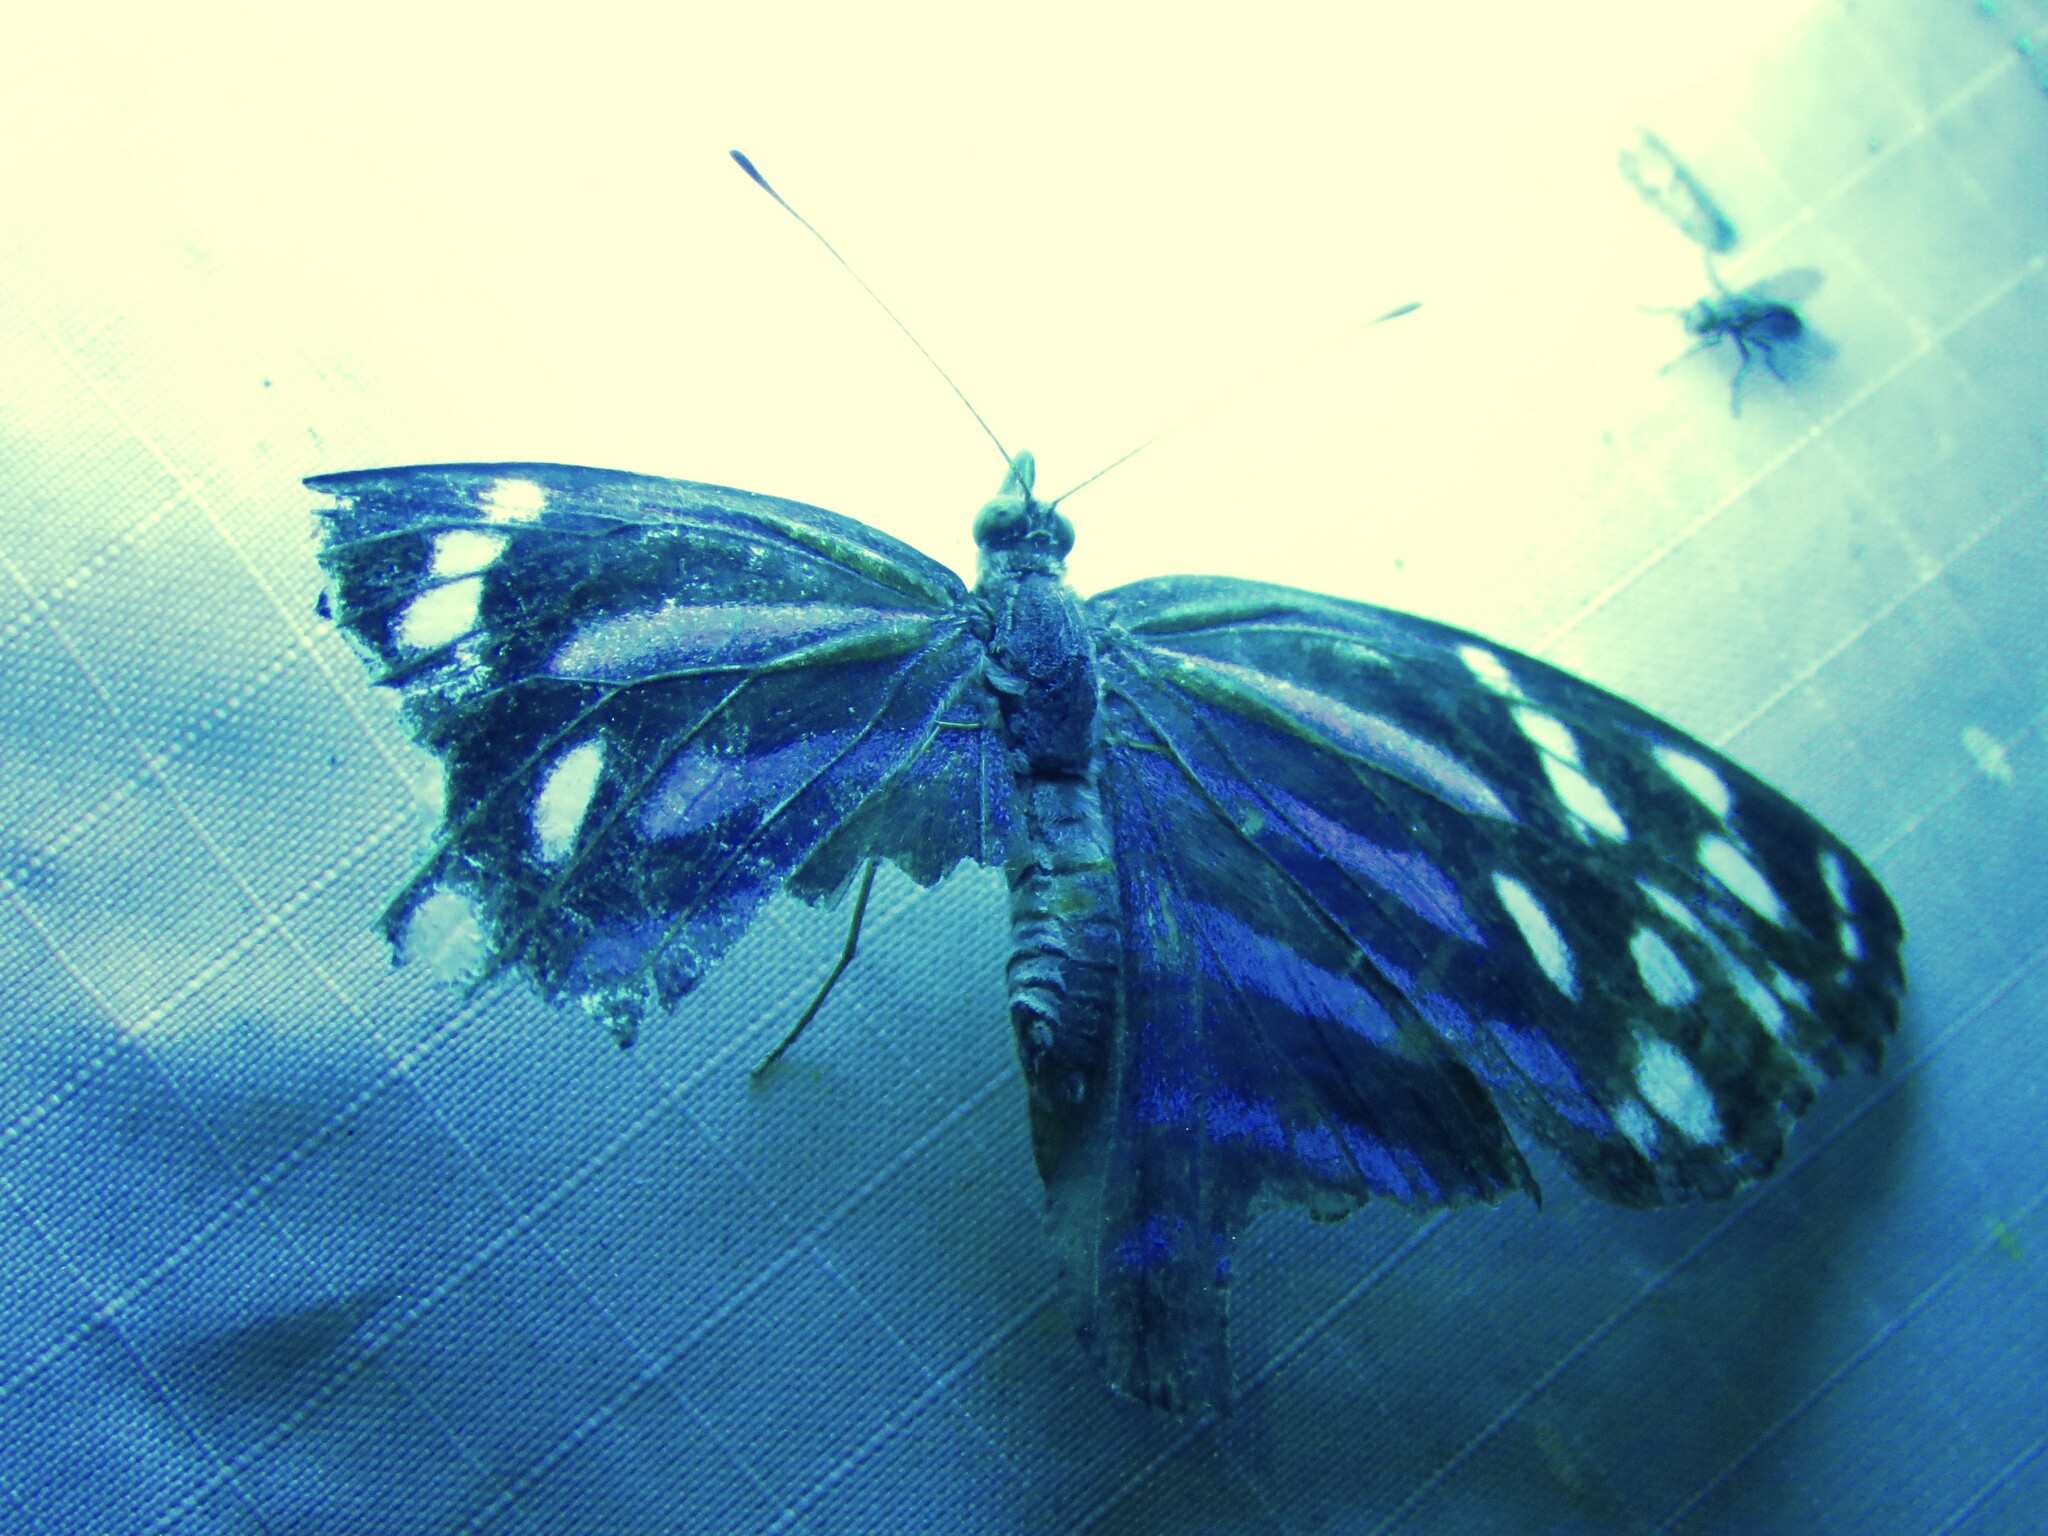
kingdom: Animalia
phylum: Arthropoda
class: Insecta
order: Lepidoptera
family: Nymphalidae
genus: Myscelia
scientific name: Myscelia ethusa
